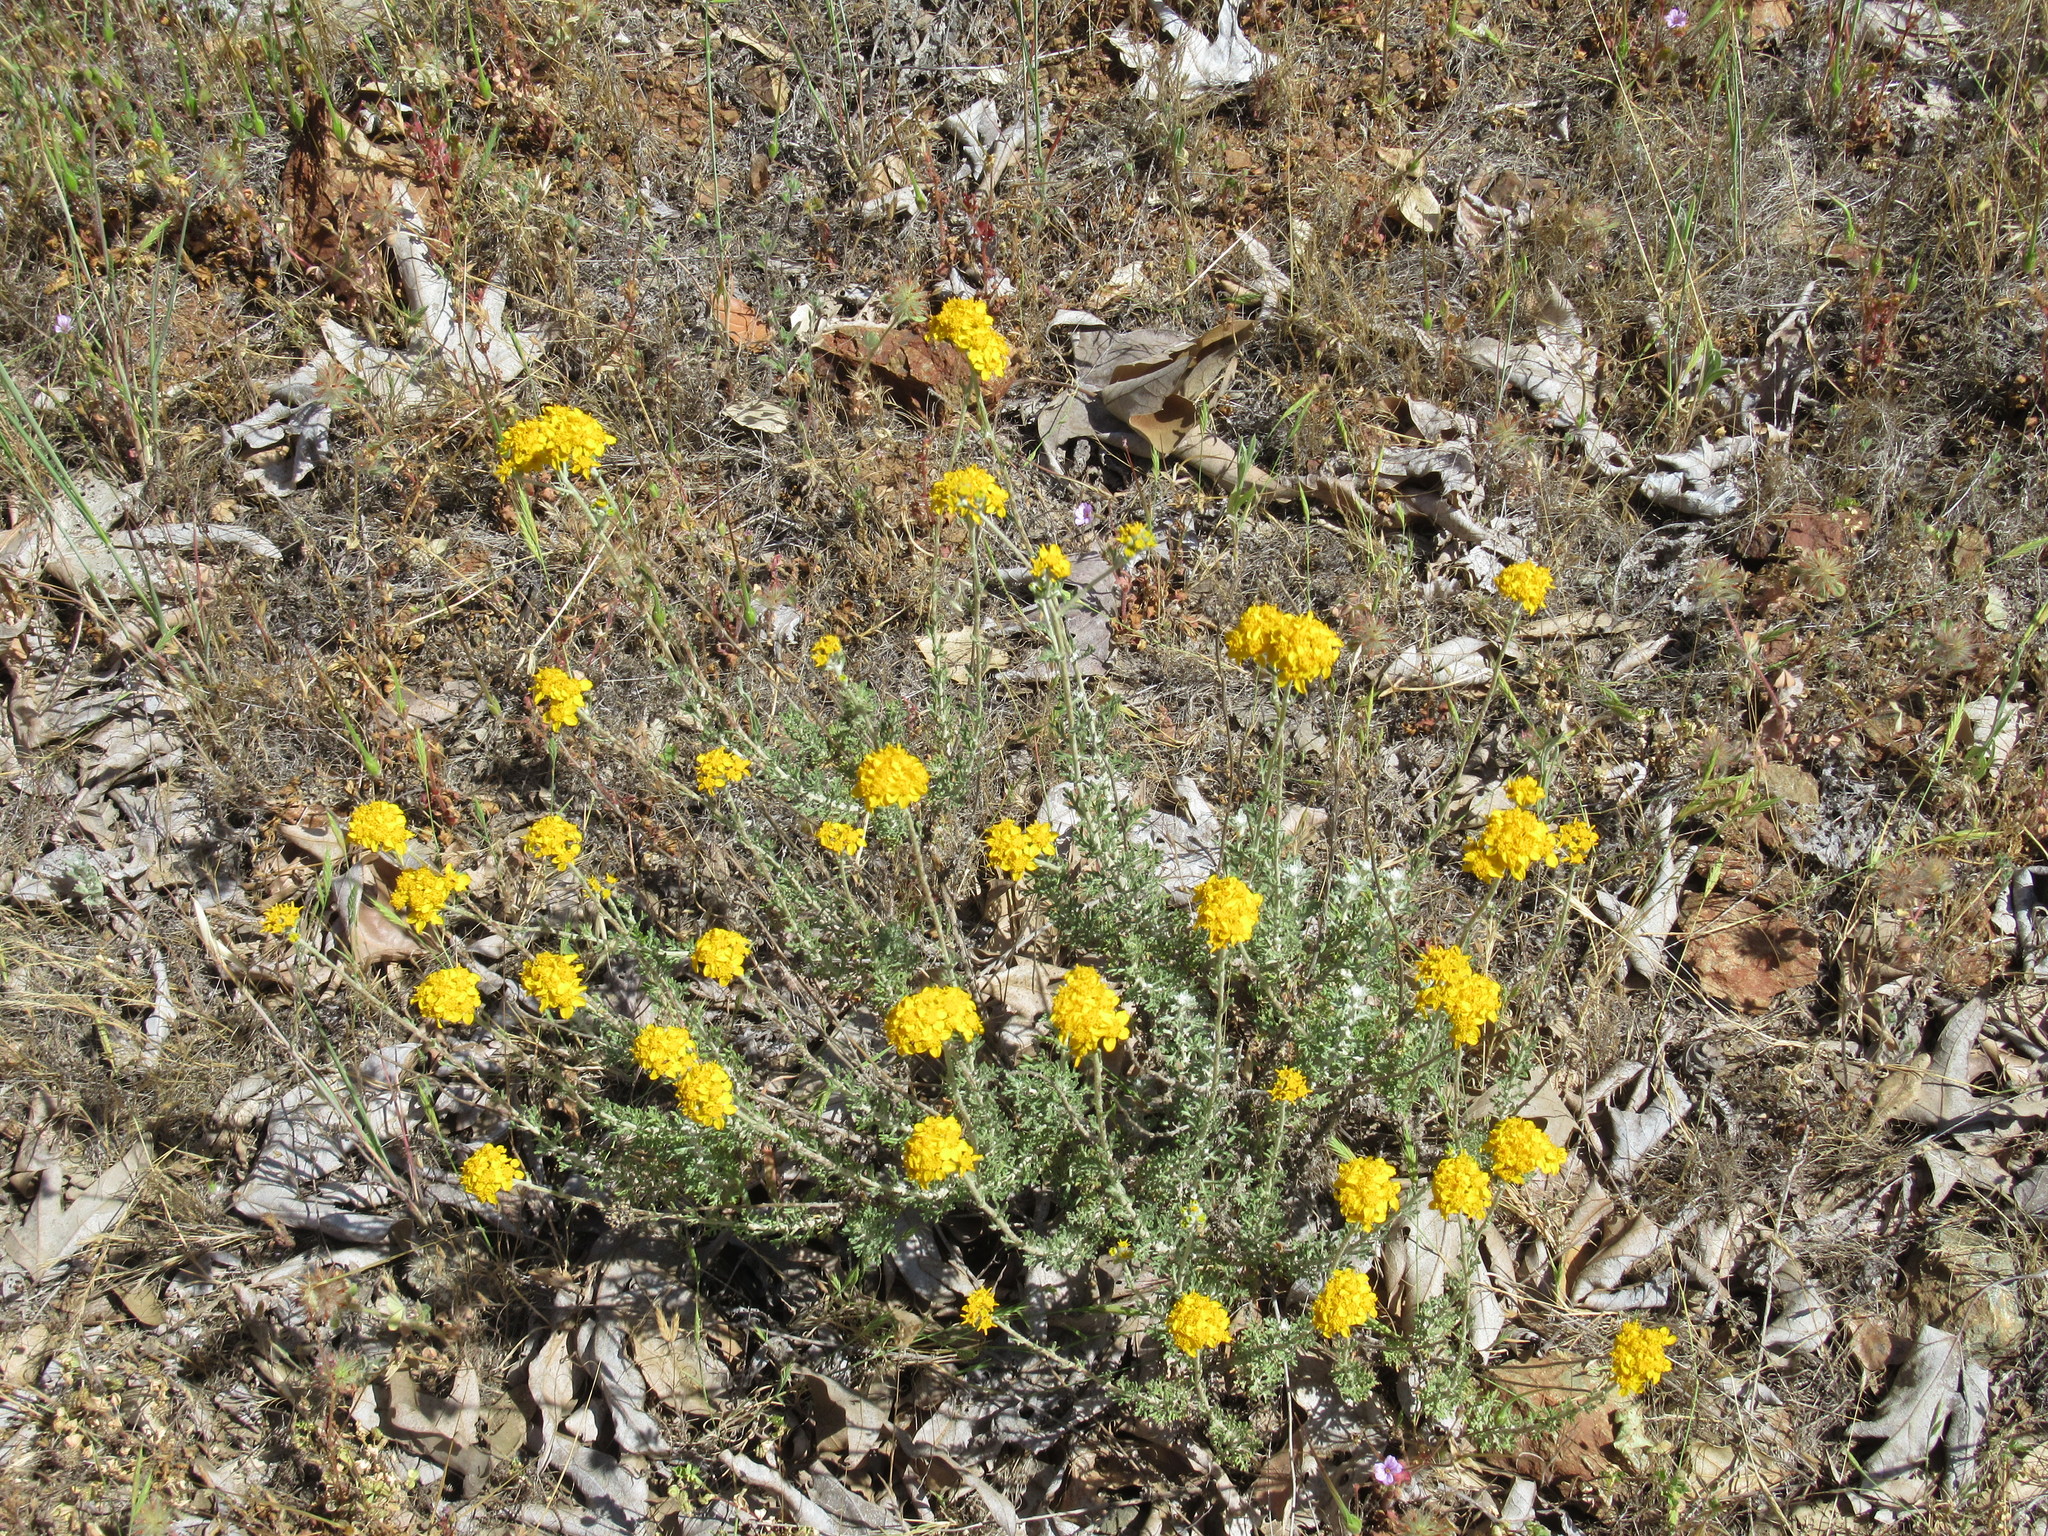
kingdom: Plantae
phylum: Tracheophyta
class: Magnoliopsida
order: Asterales
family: Asteraceae
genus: Eriophyllum
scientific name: Eriophyllum confertiflorum
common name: Golden-yarrow
